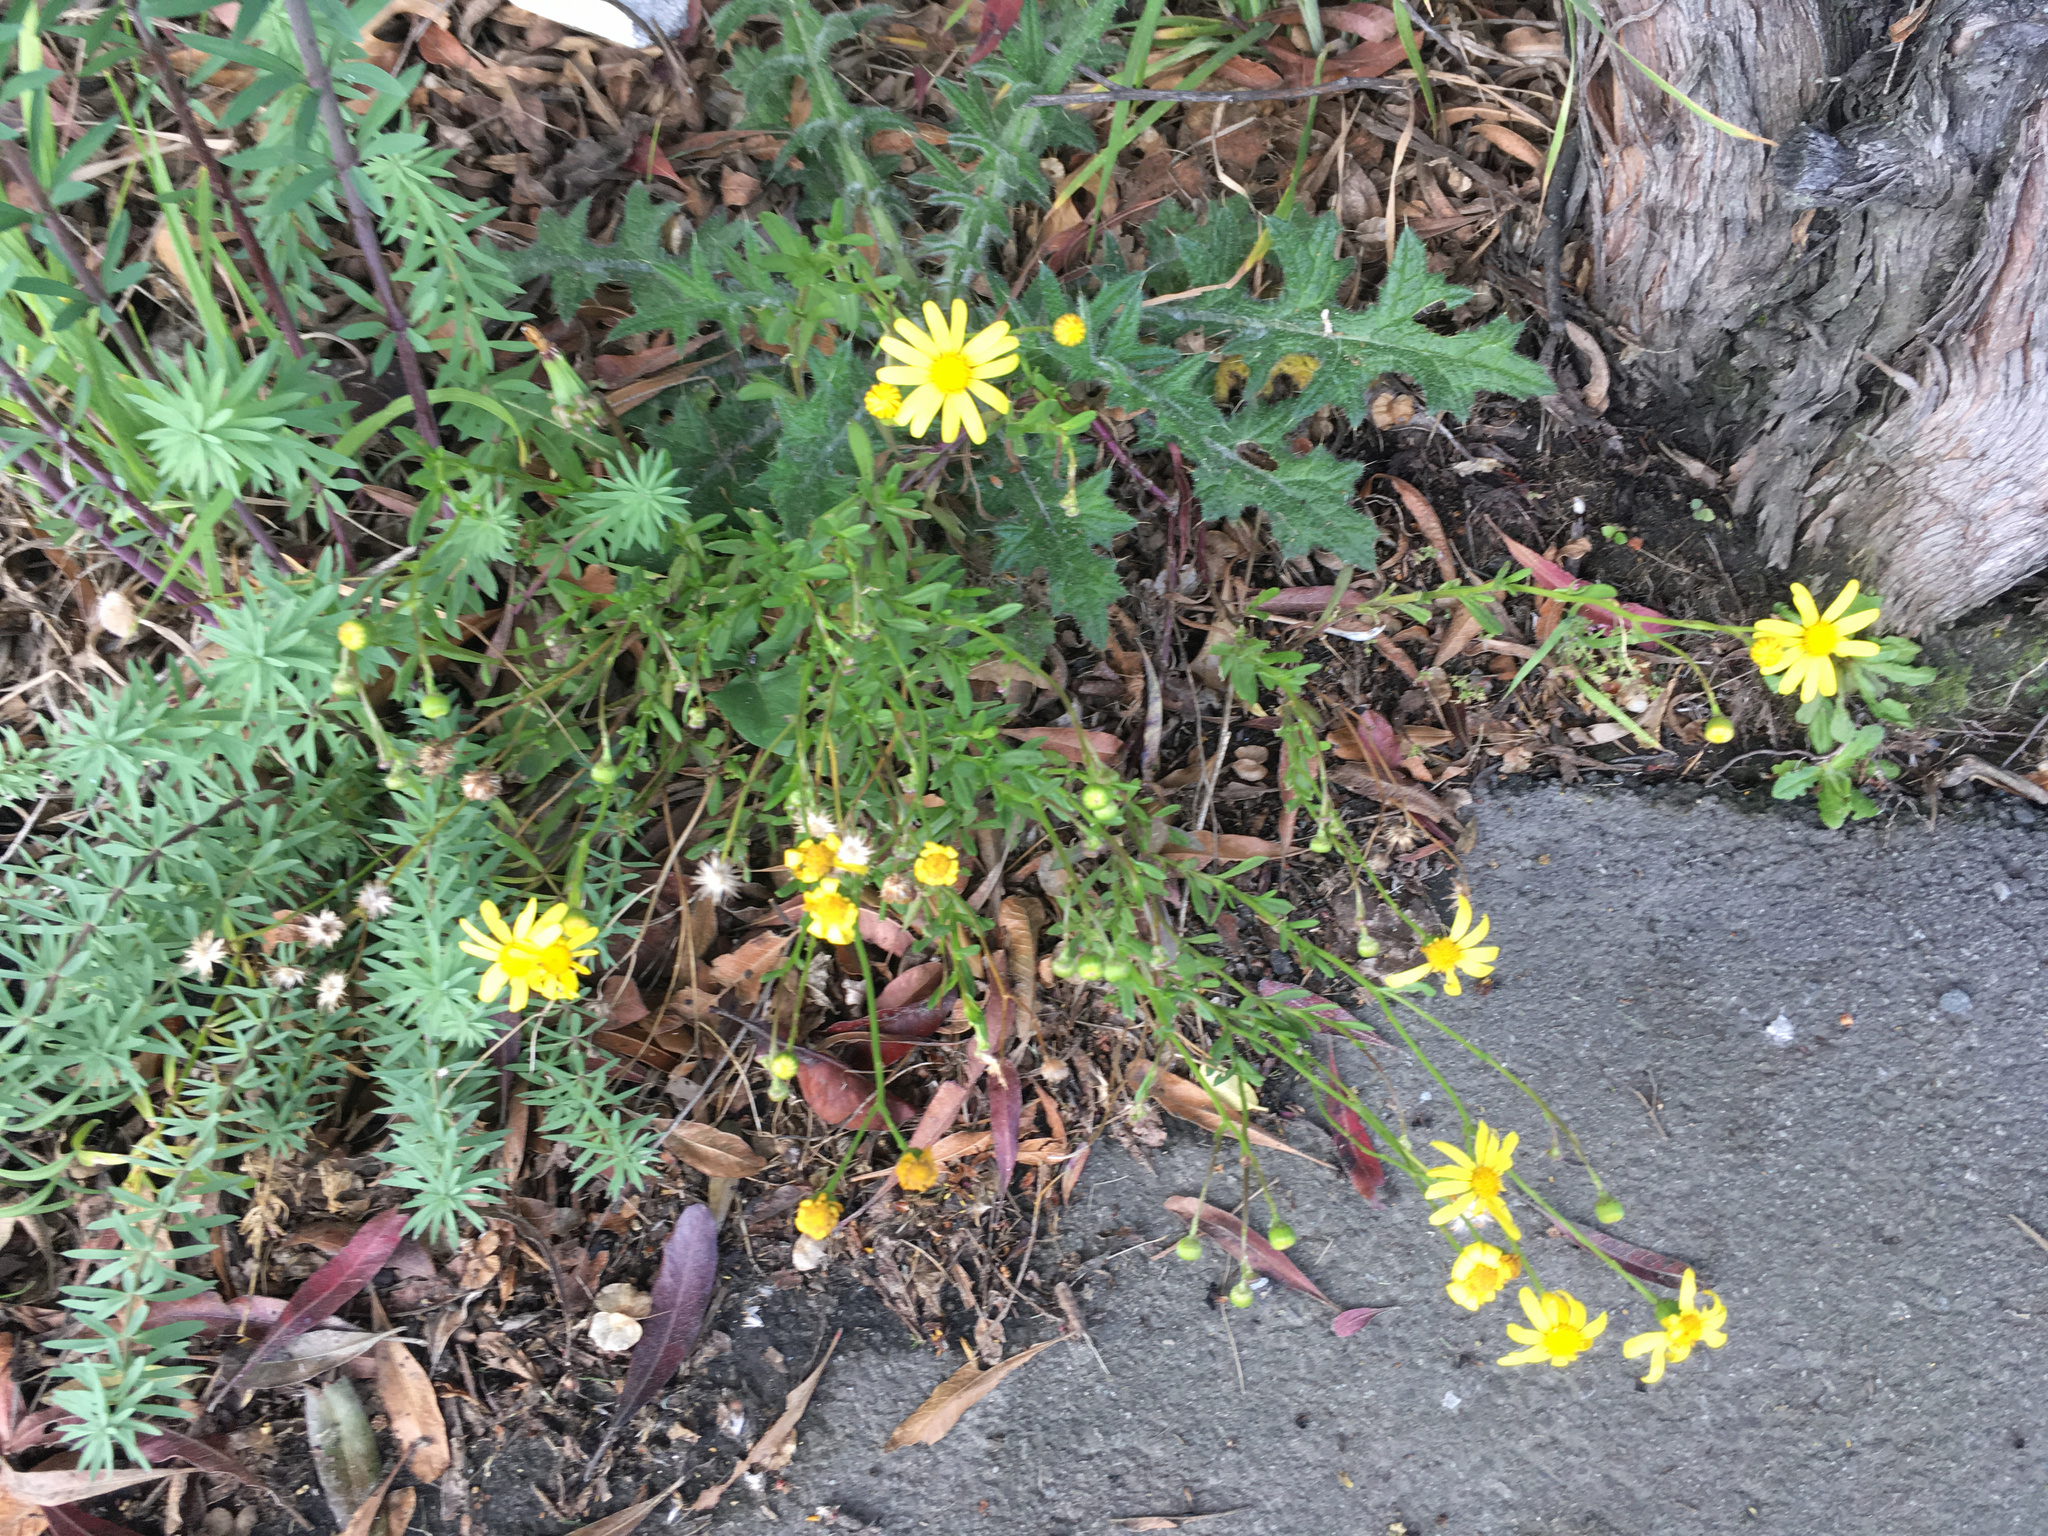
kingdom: Plantae
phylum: Tracheophyta
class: Magnoliopsida
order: Asterales
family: Asteraceae
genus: Senecio
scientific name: Senecio skirrhodon
